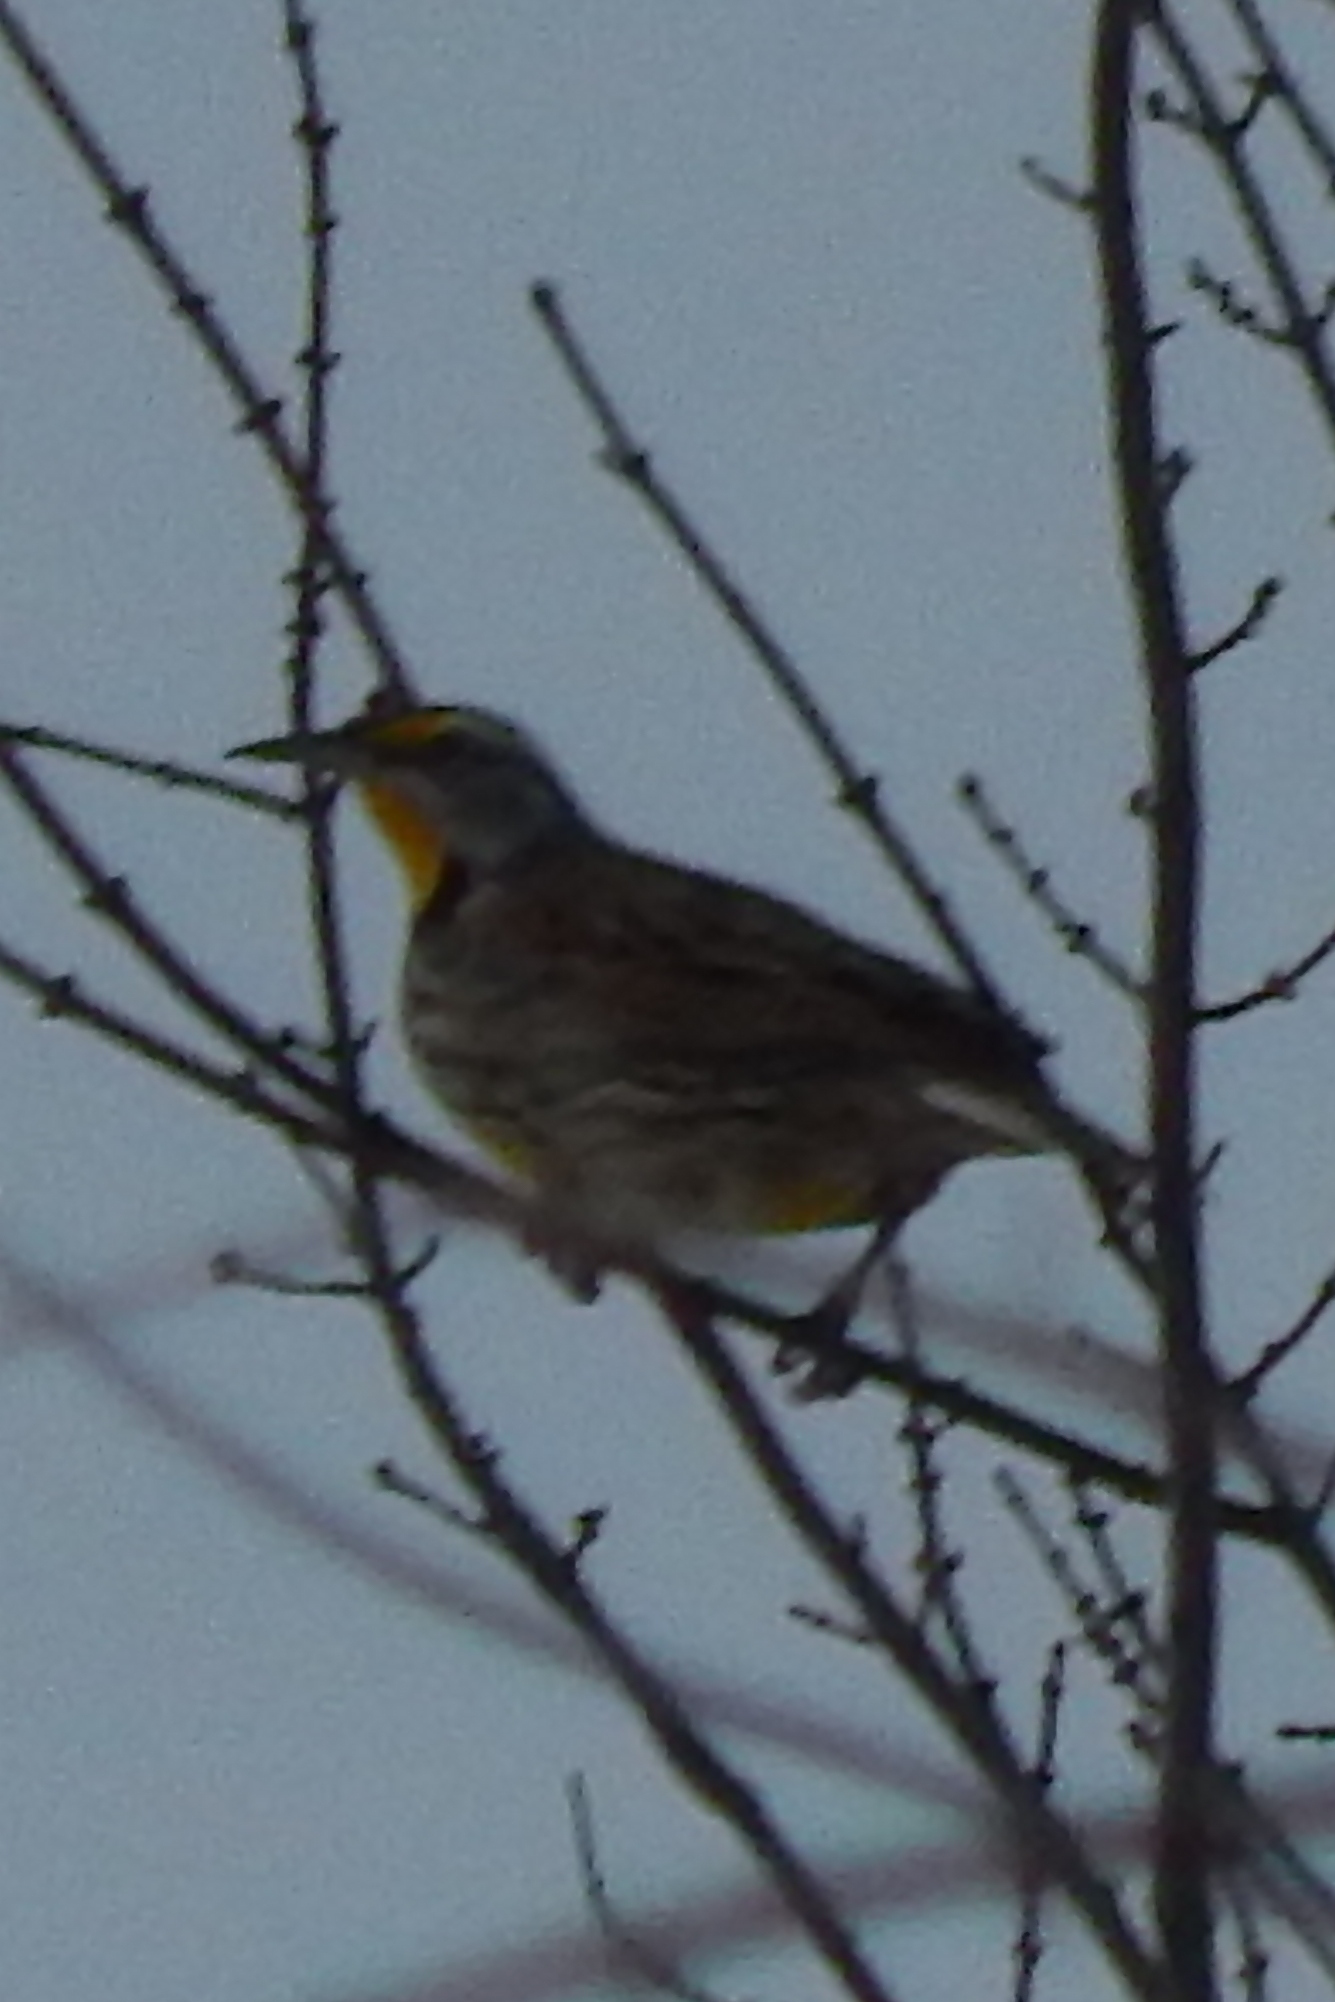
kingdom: Animalia
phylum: Chordata
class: Aves
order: Passeriformes
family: Icteridae
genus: Sturnella
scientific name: Sturnella magna
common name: Eastern meadowlark
